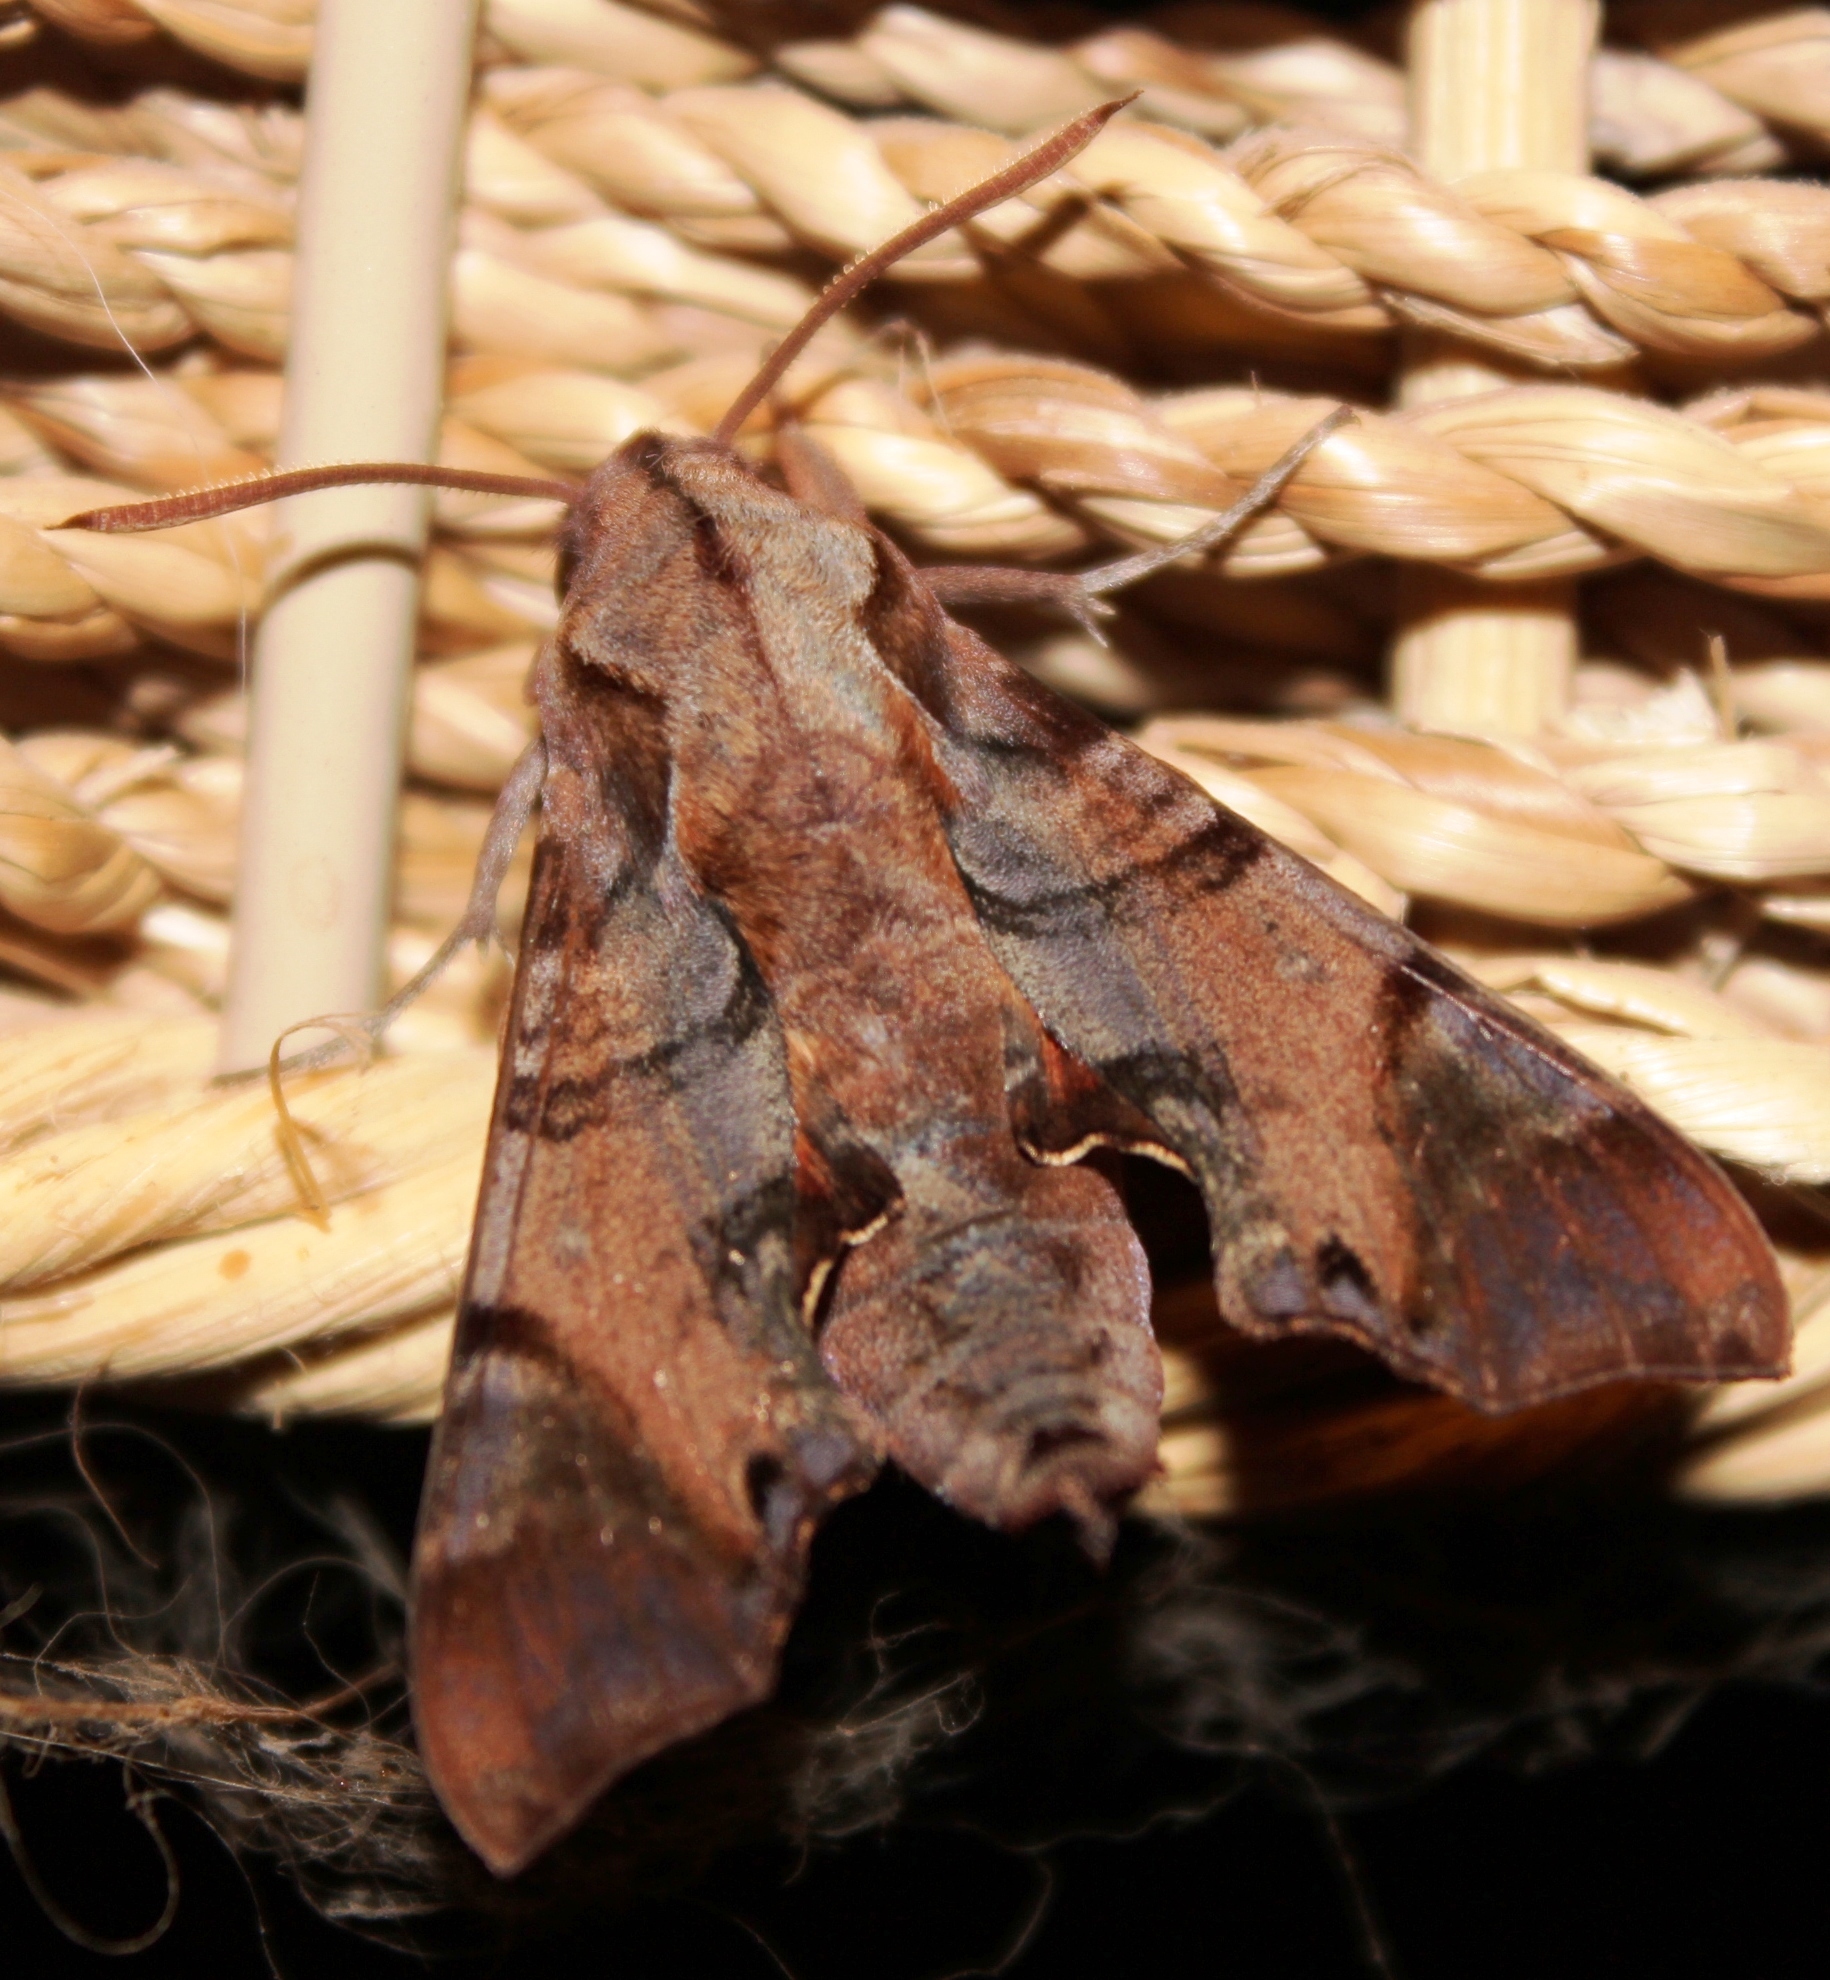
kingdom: Animalia
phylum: Arthropoda
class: Insecta
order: Lepidoptera
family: Sphingidae
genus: Temnora
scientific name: Temnora pylas
